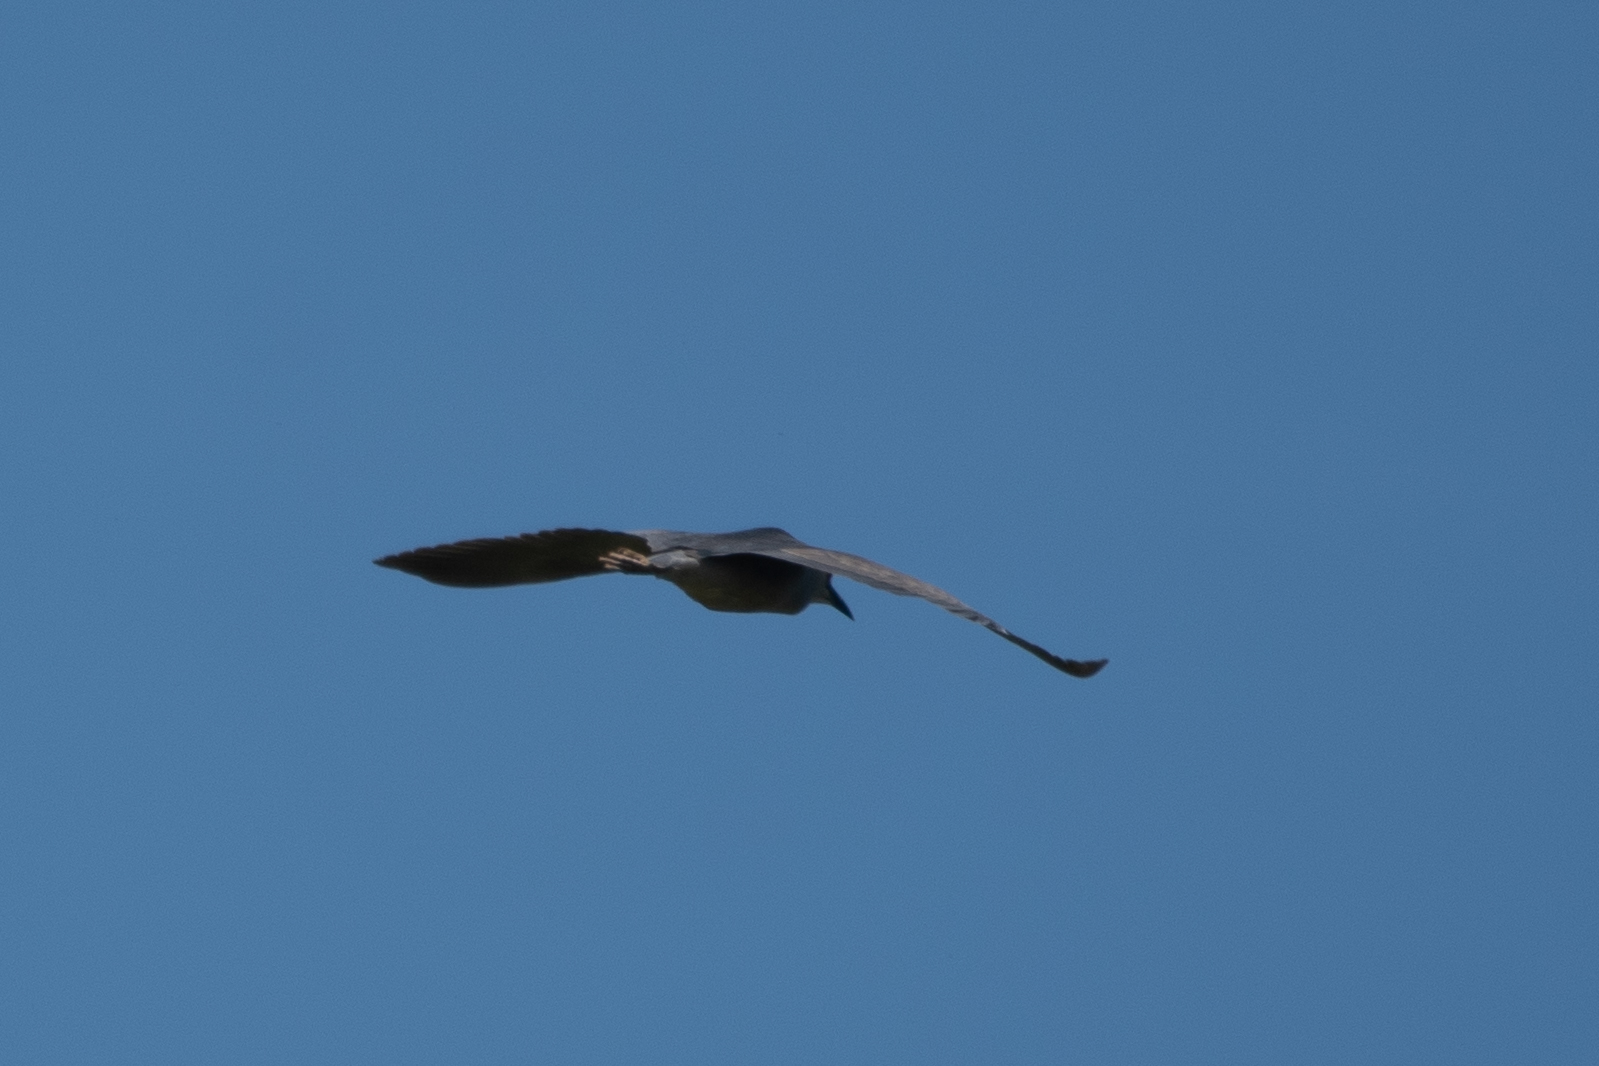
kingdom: Animalia
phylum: Chordata
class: Aves
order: Pelecaniformes
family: Ardeidae
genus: Nycticorax
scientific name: Nycticorax nycticorax
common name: Black-crowned night heron
